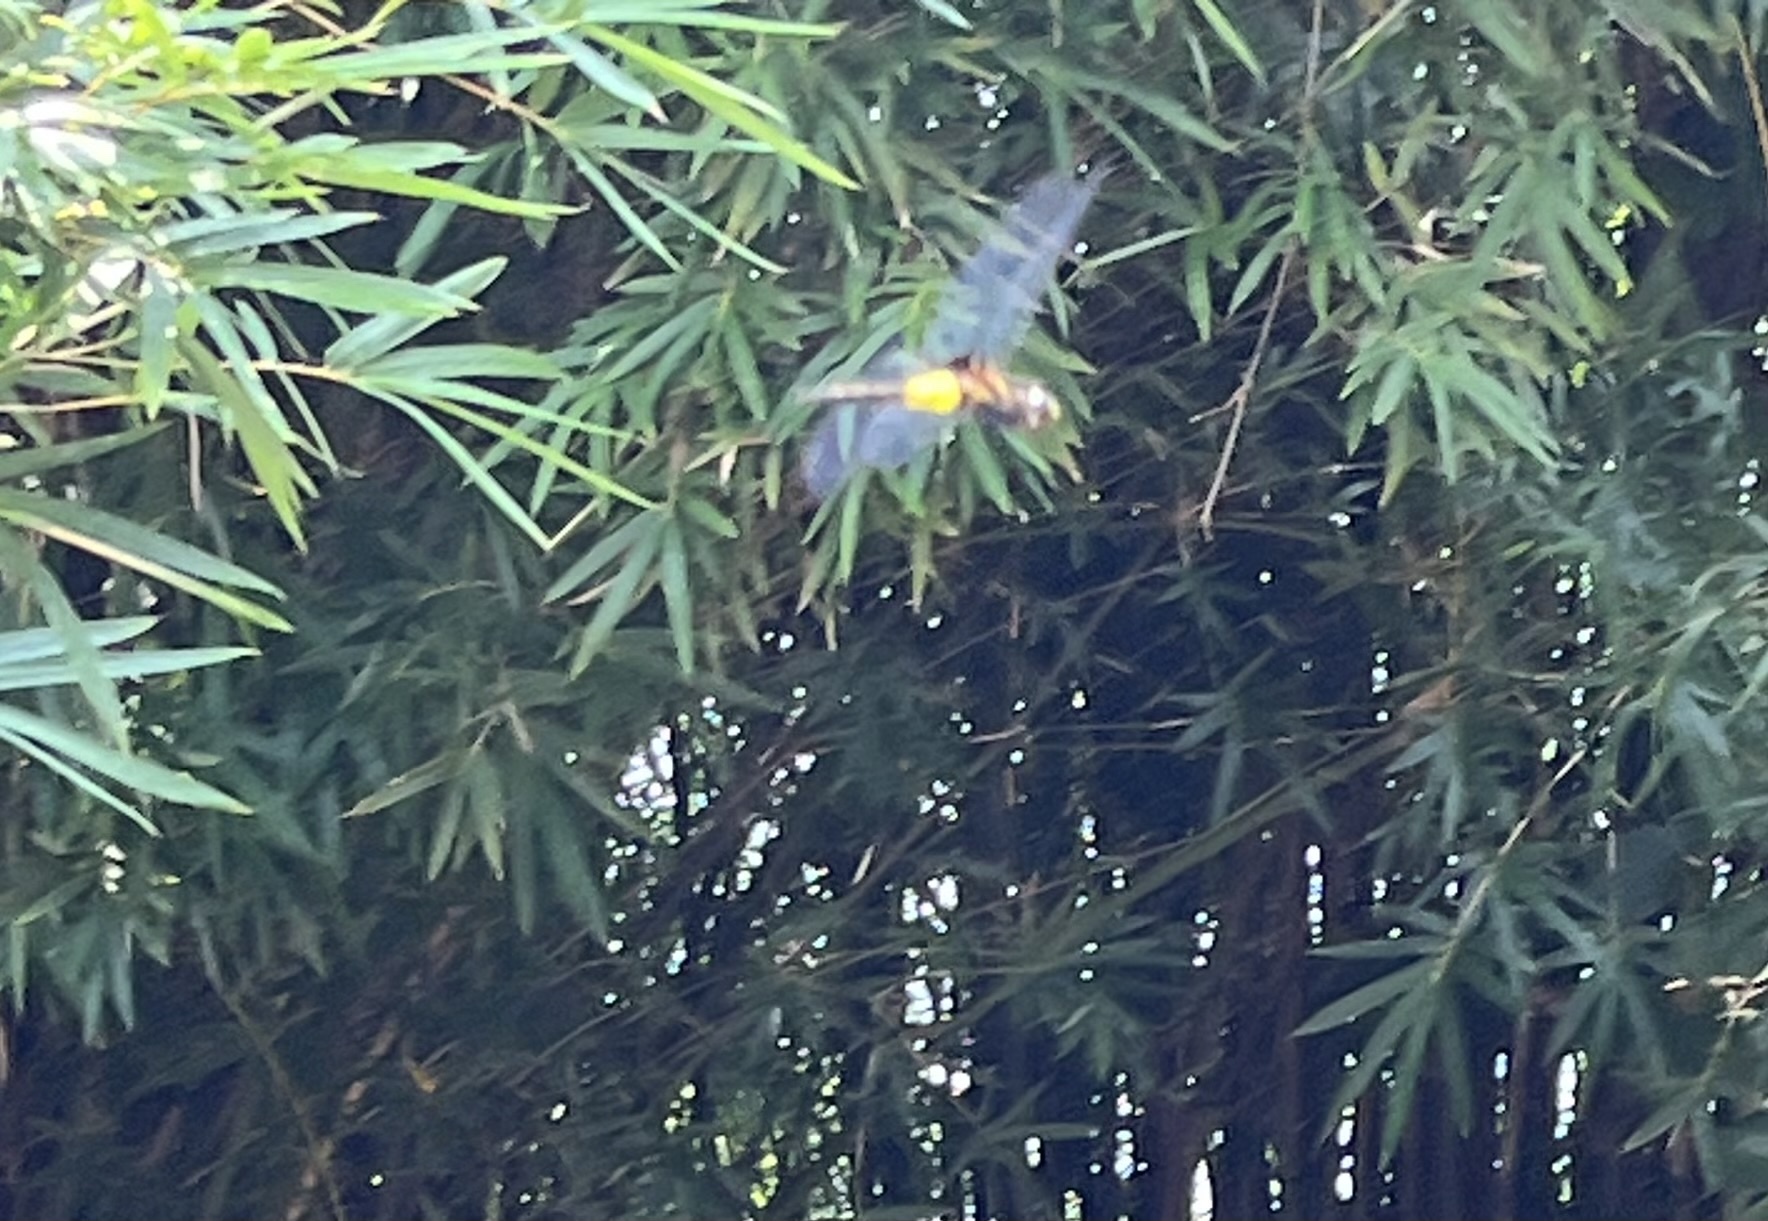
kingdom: Animalia
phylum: Arthropoda
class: Insecta
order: Odonata
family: Libellulidae
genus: Pseudothemis
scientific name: Pseudothemis zonata
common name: Pied skimmer
